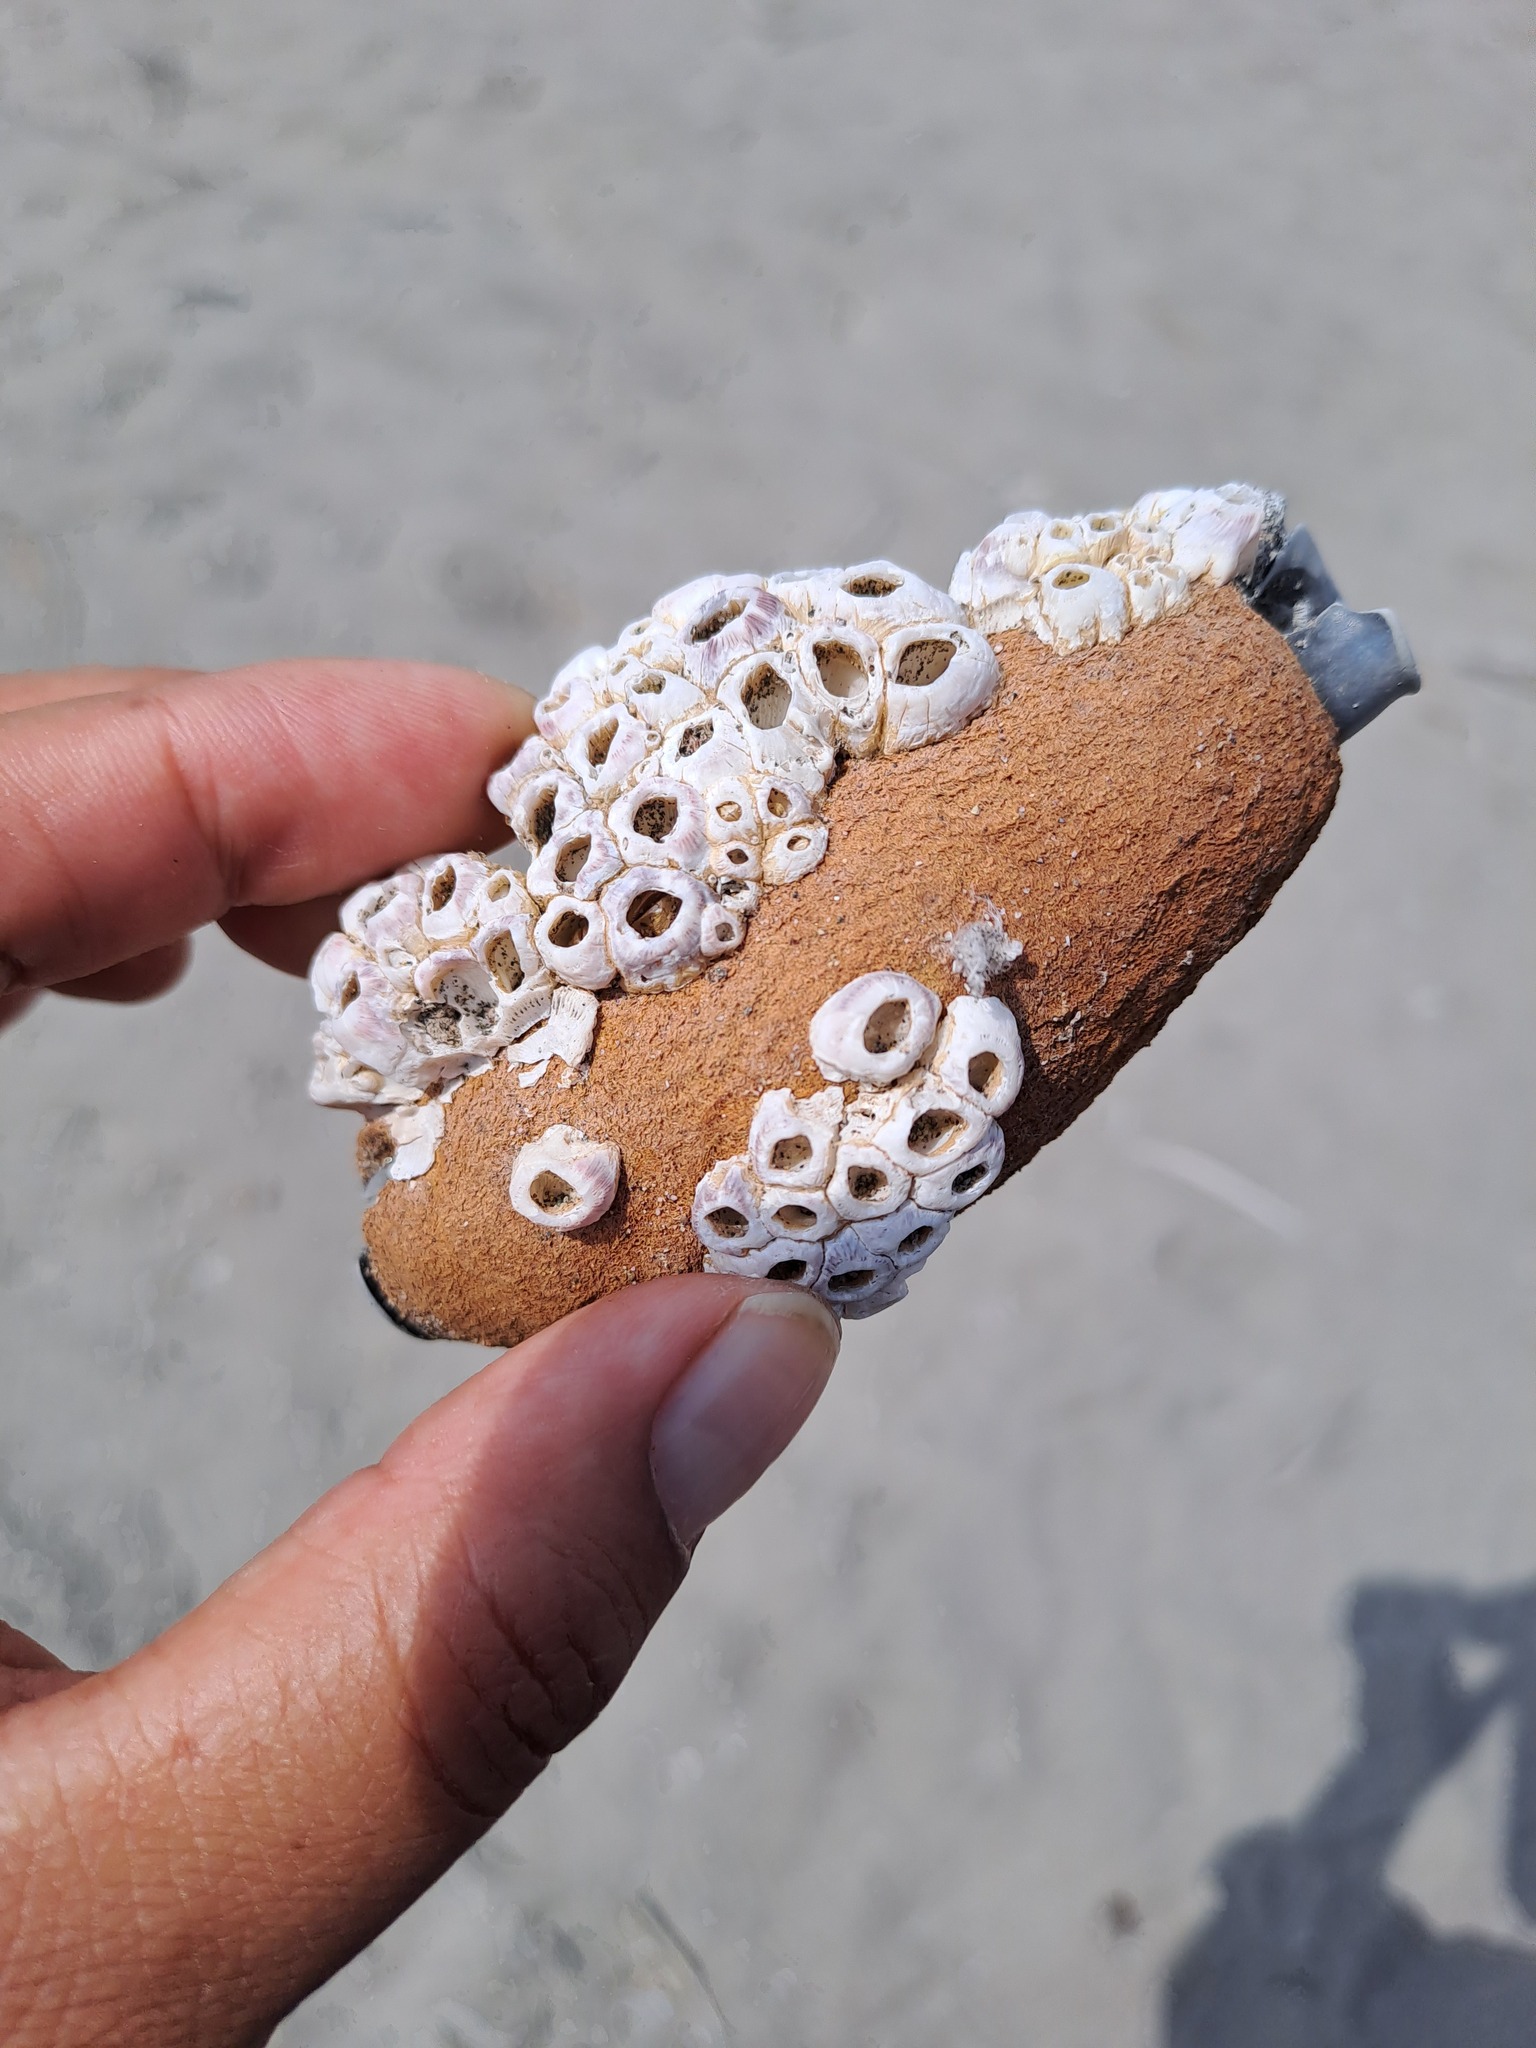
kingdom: Animalia
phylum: Arthropoda
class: Maxillopoda
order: Sessilia
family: Balanidae
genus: Balanus
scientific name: Balanus laevis
